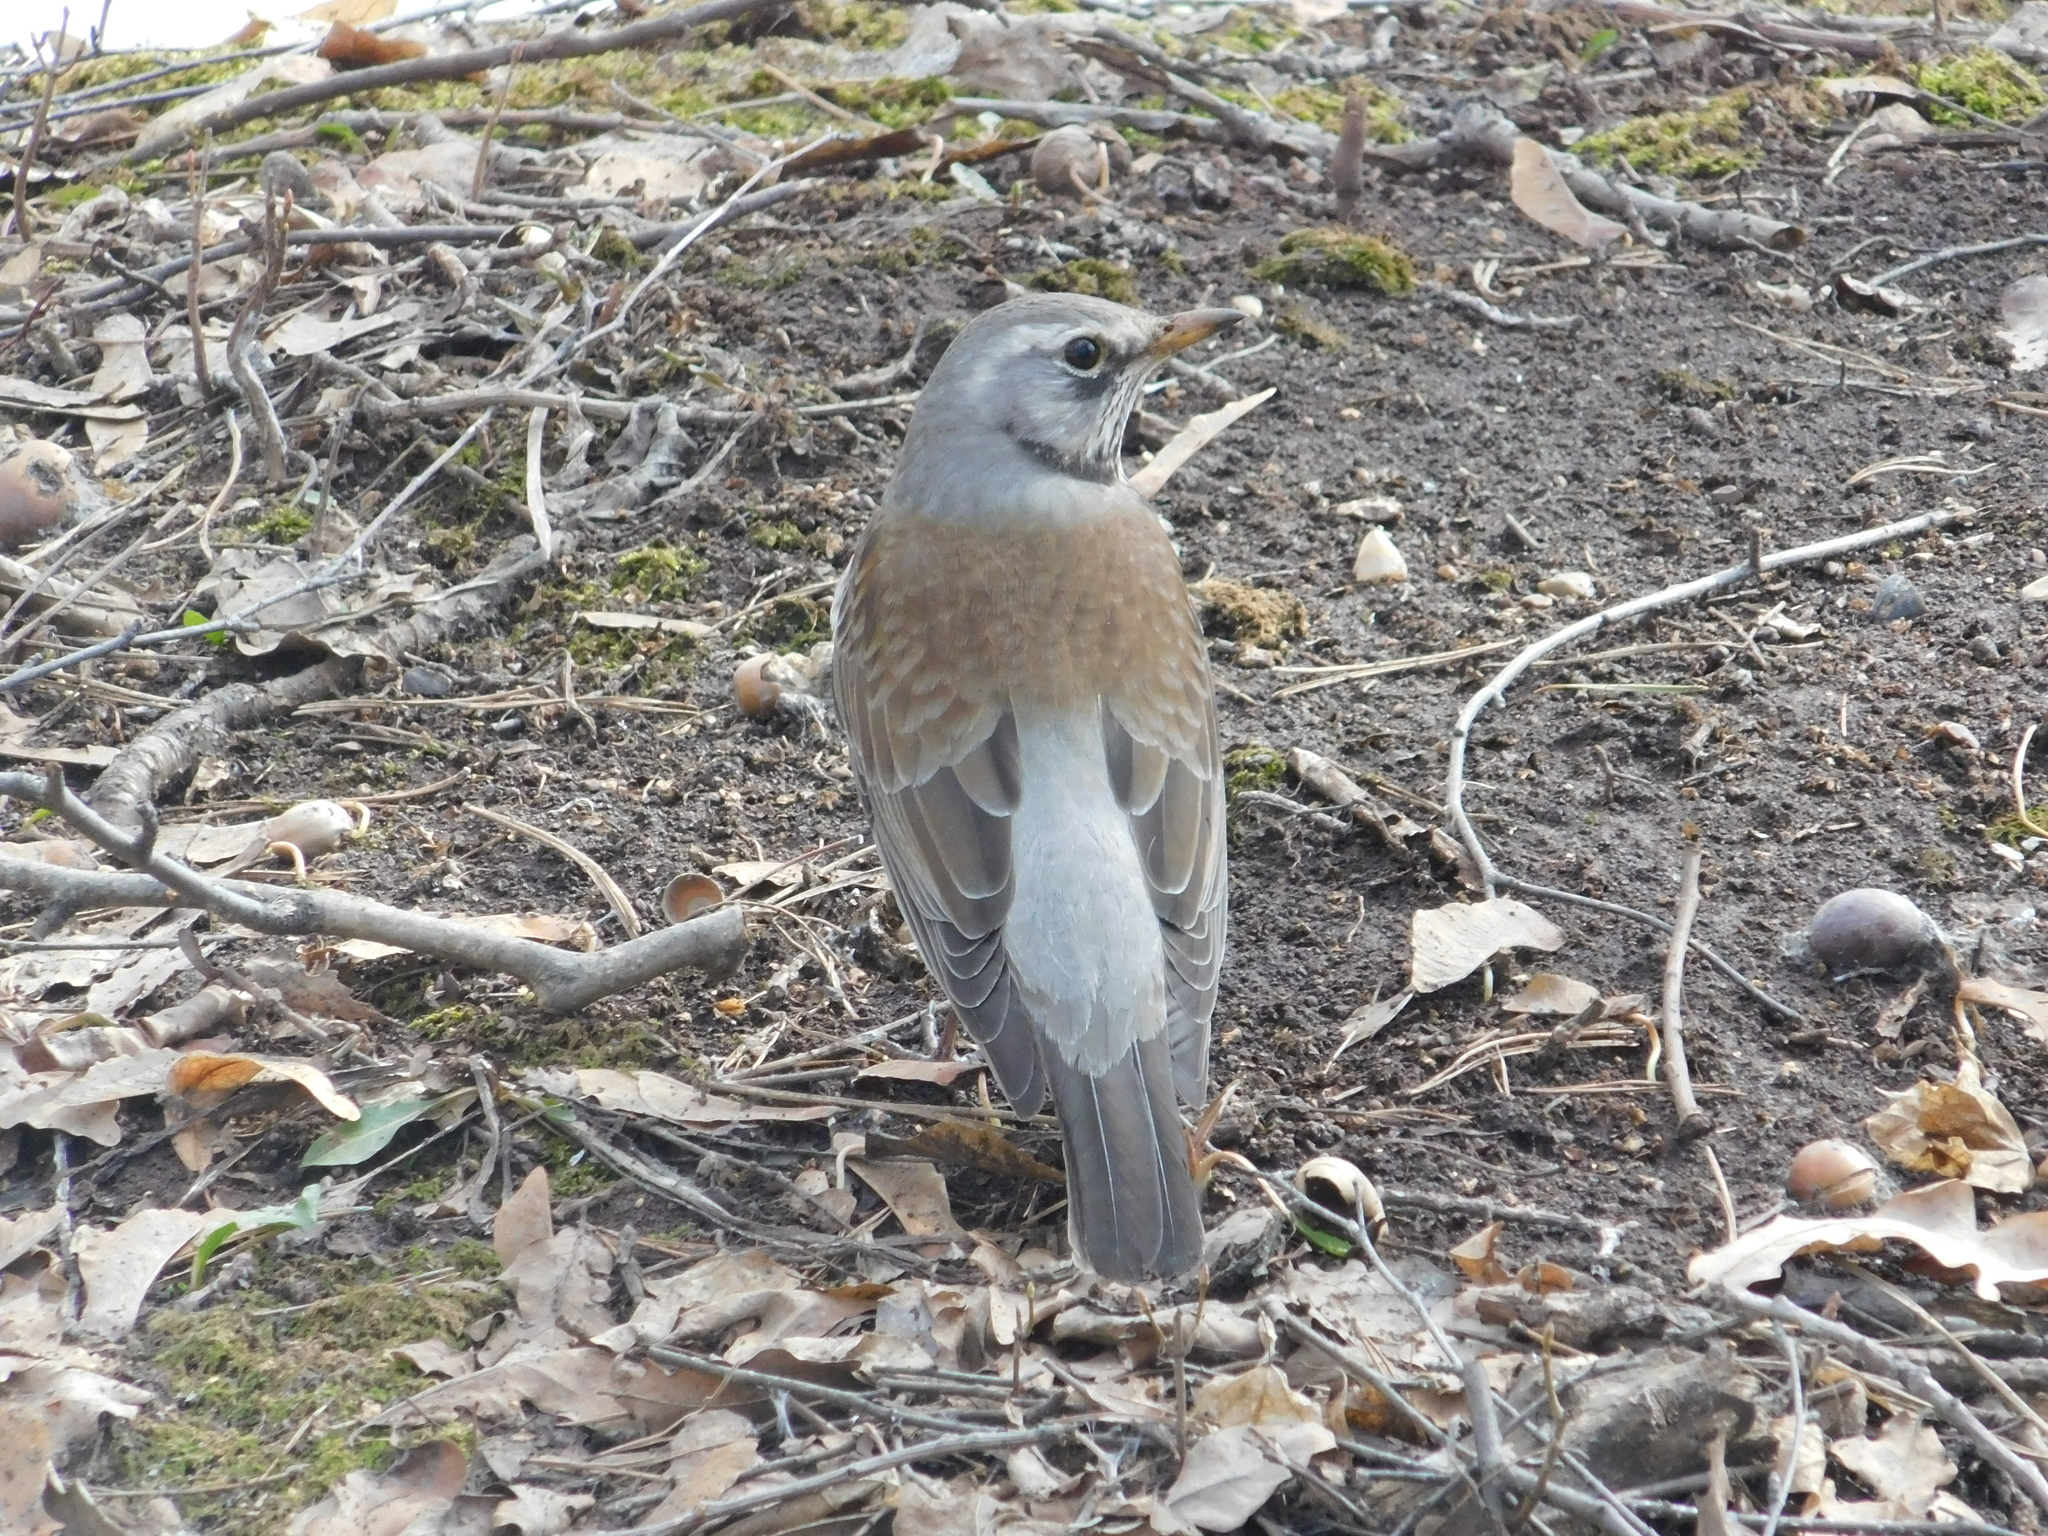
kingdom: Animalia
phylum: Chordata
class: Aves
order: Passeriformes
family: Turdidae
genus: Turdus
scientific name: Turdus pilaris
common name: Fieldfare
